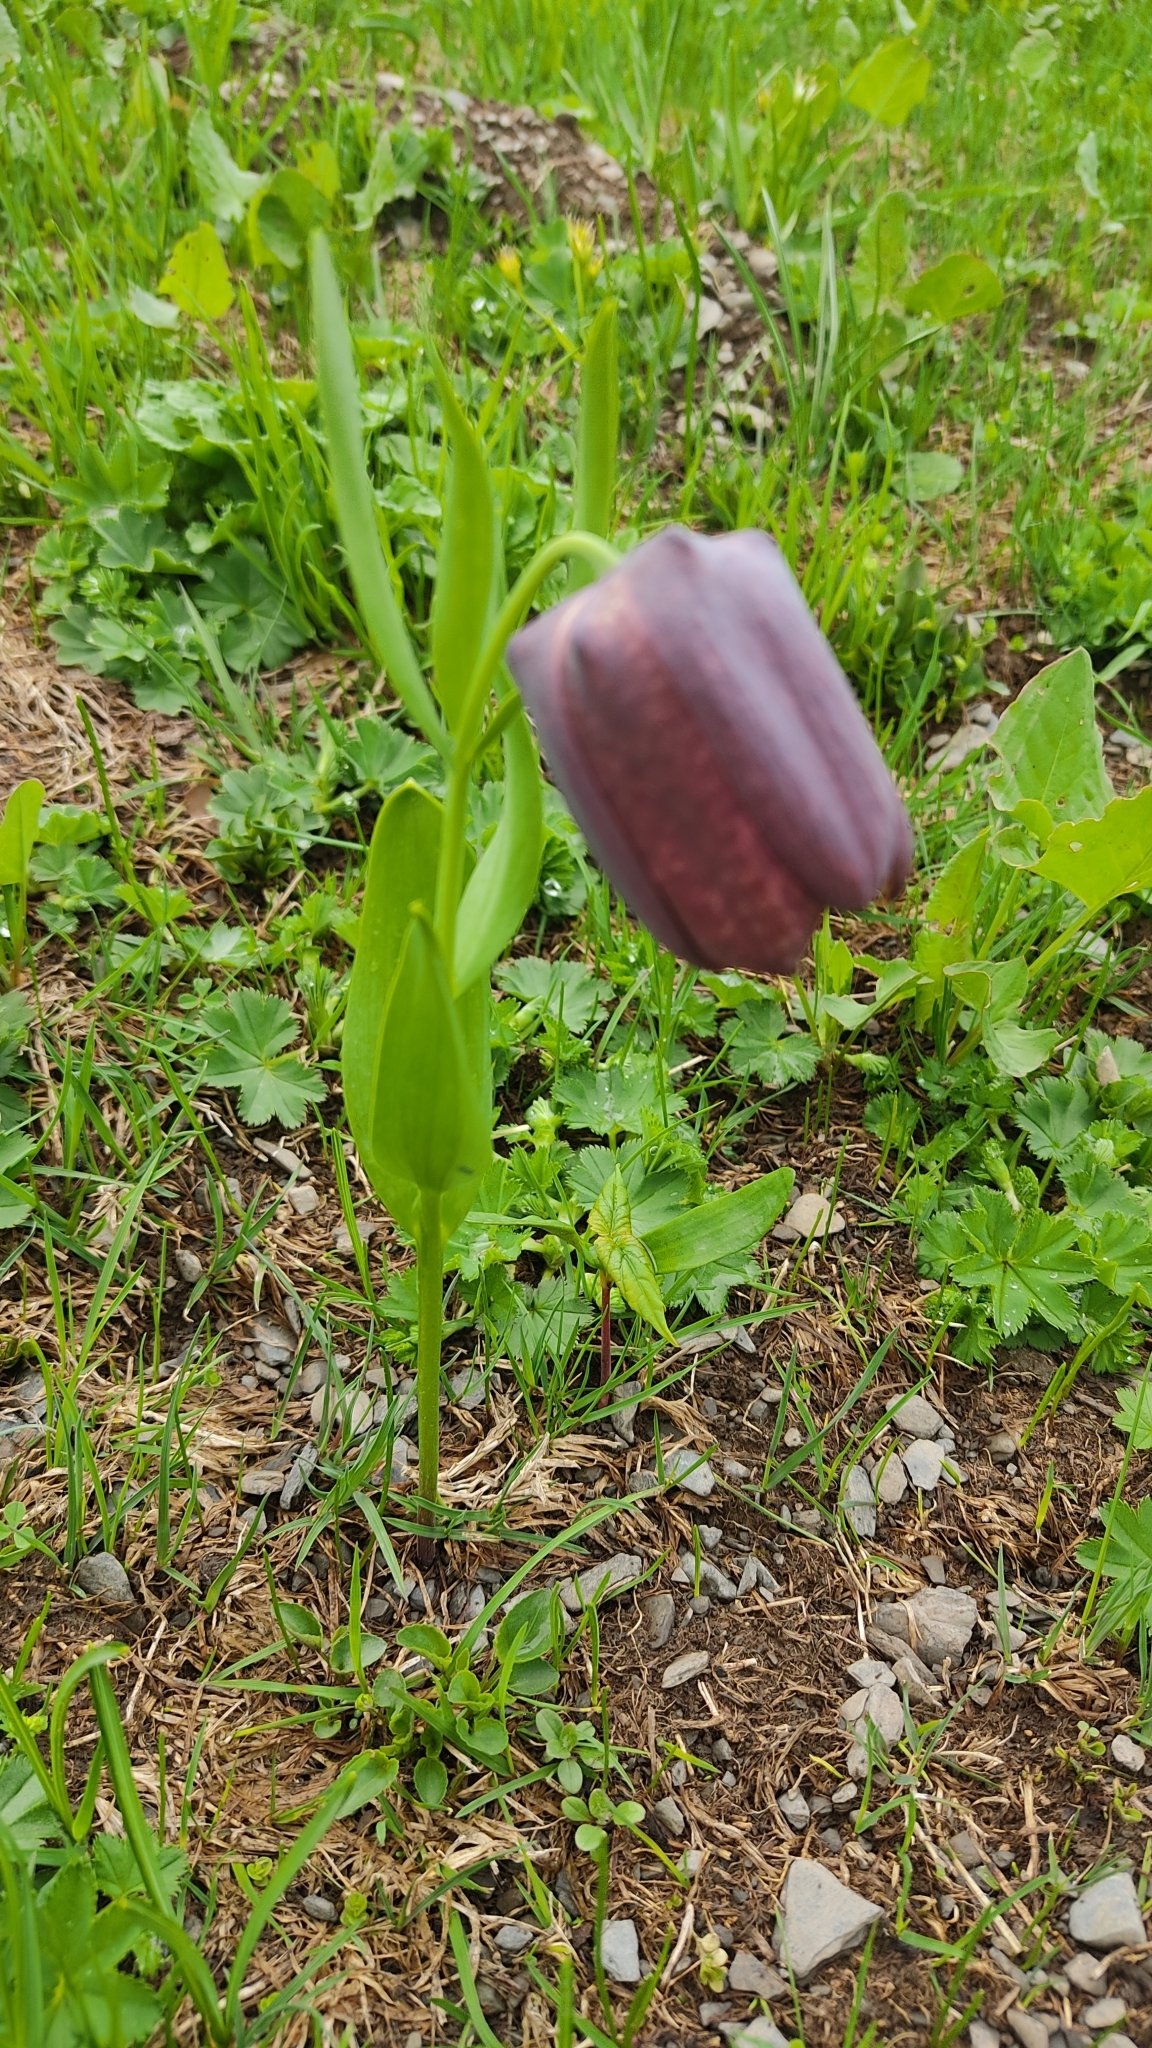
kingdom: Plantae
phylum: Tracheophyta
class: Liliopsida
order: Liliales
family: Liliaceae
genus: Fritillaria
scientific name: Fritillaria latifolia
